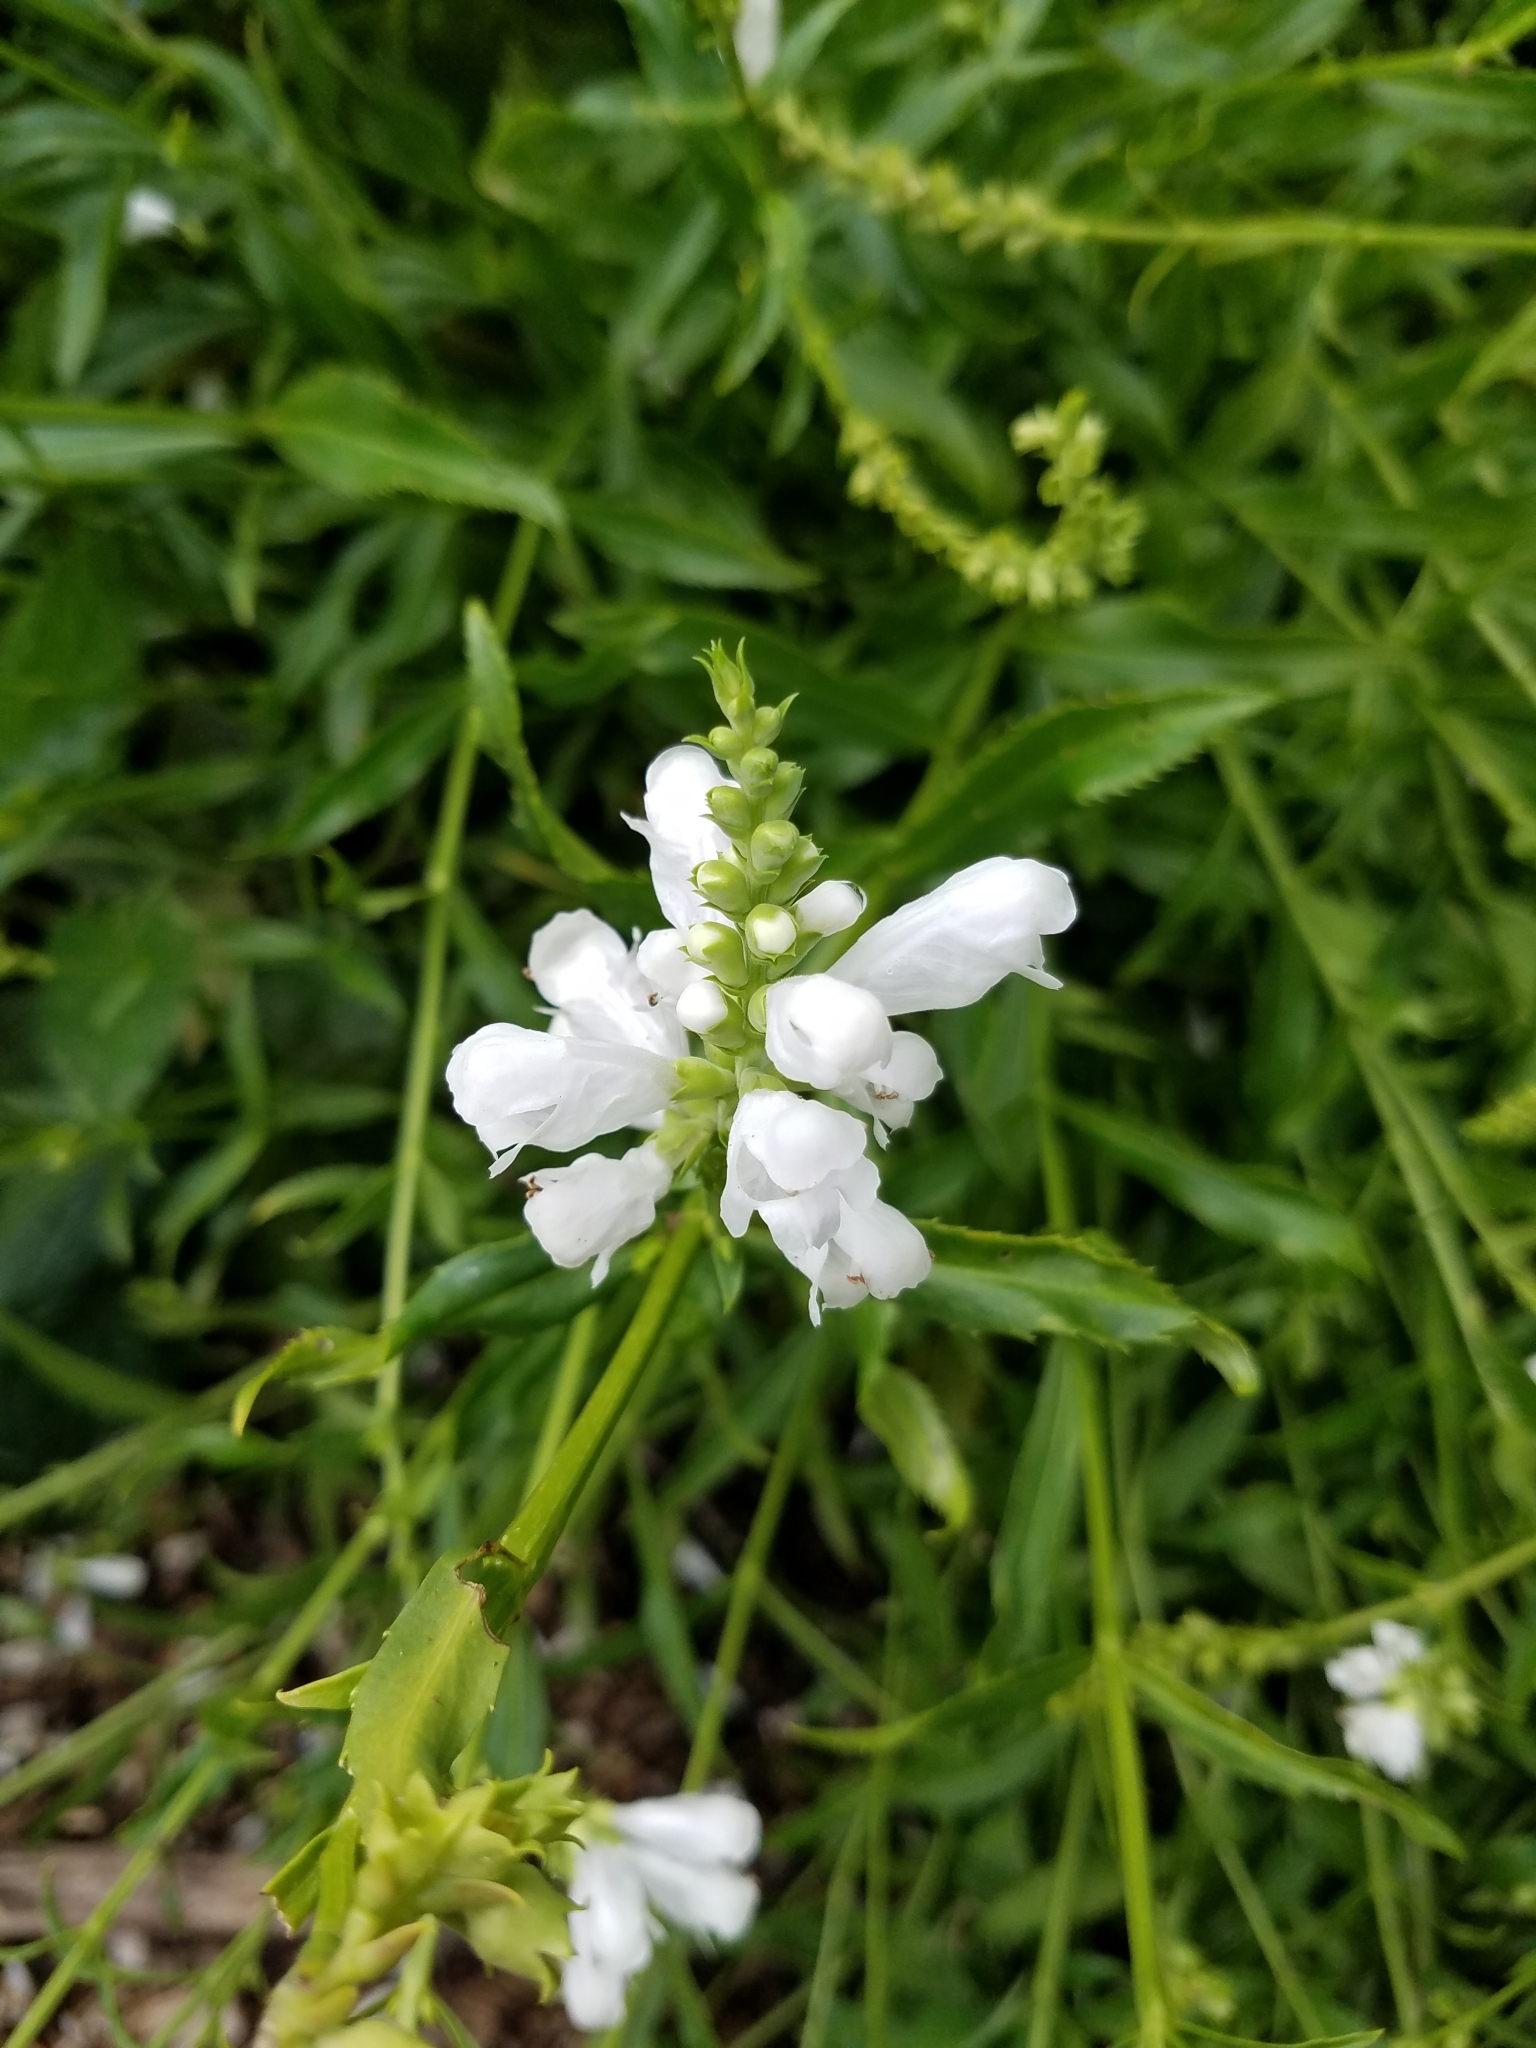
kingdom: Plantae
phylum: Tracheophyta
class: Magnoliopsida
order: Lamiales
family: Lamiaceae
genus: Physostegia
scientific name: Physostegia virginiana
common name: Obedient-plant
